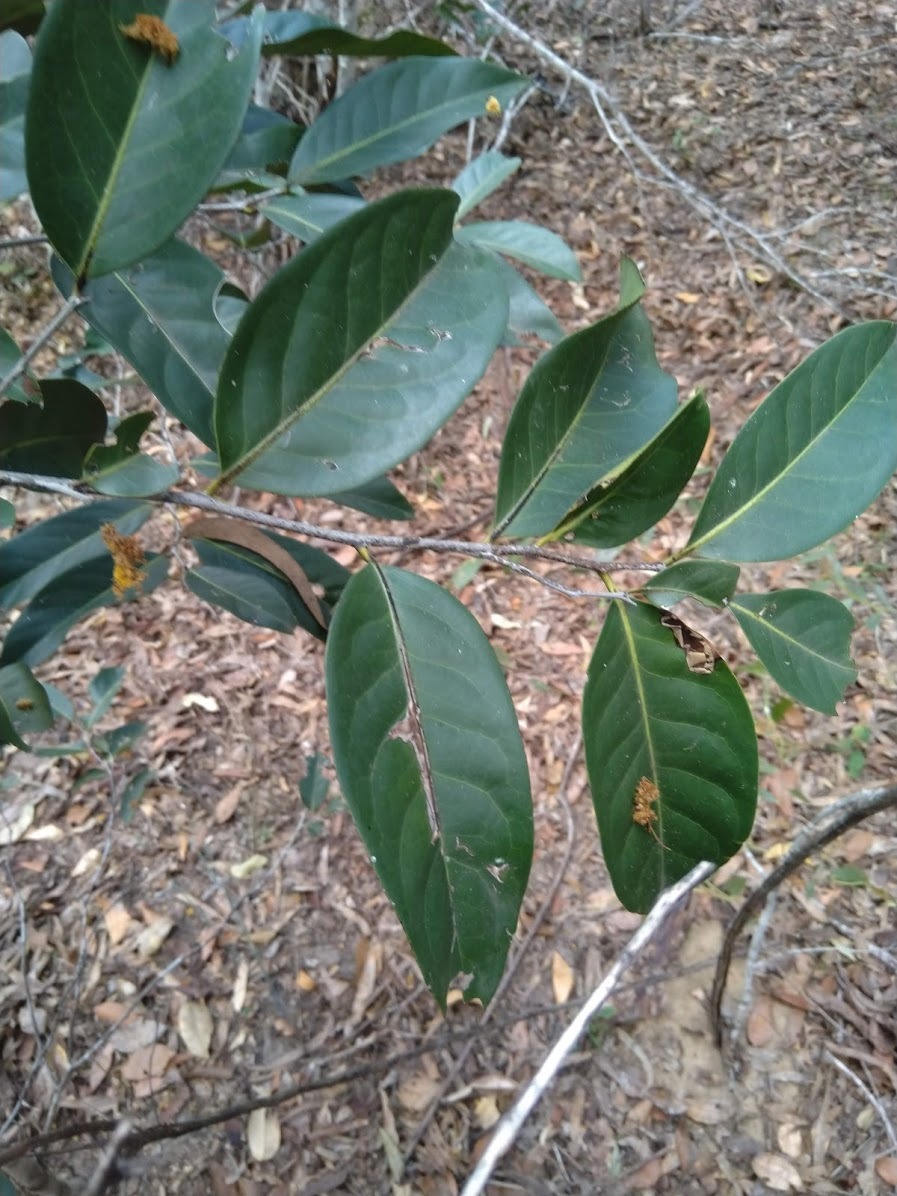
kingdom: Plantae
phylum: Tracheophyta
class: Magnoliopsida
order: Ericales
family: Ebenaceae
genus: Diospyros
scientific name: Diospyros fasciculosa
